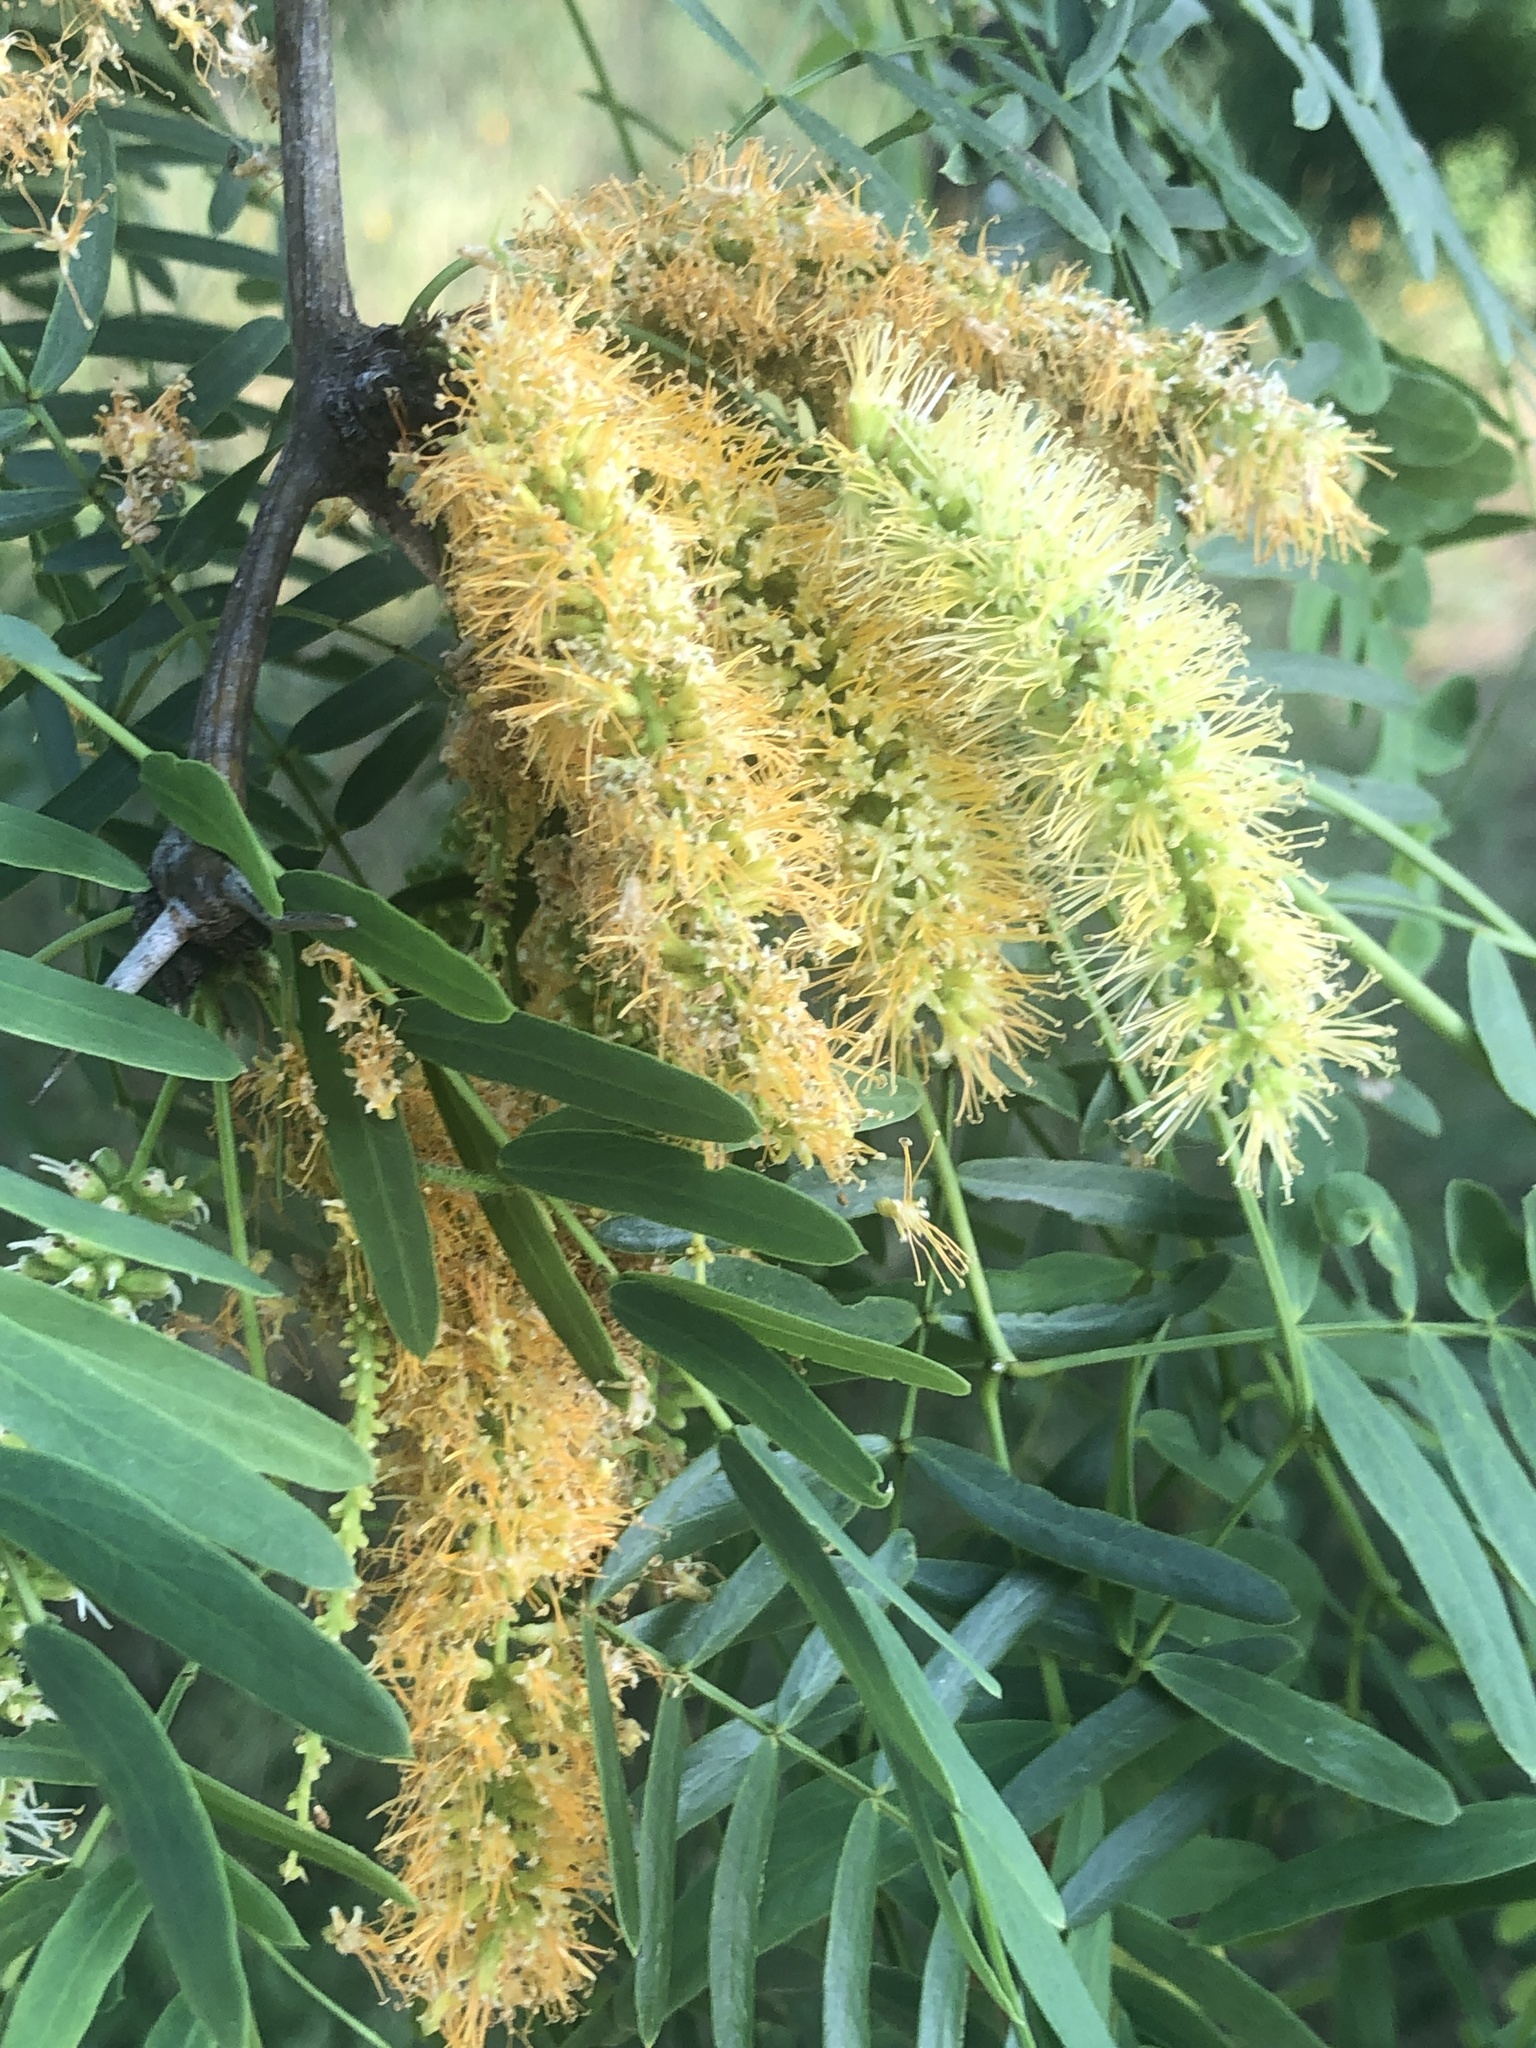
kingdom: Plantae
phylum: Tracheophyta
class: Magnoliopsida
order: Fabales
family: Fabaceae
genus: Prosopis
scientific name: Prosopis glandulosa
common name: Honey mesquite
